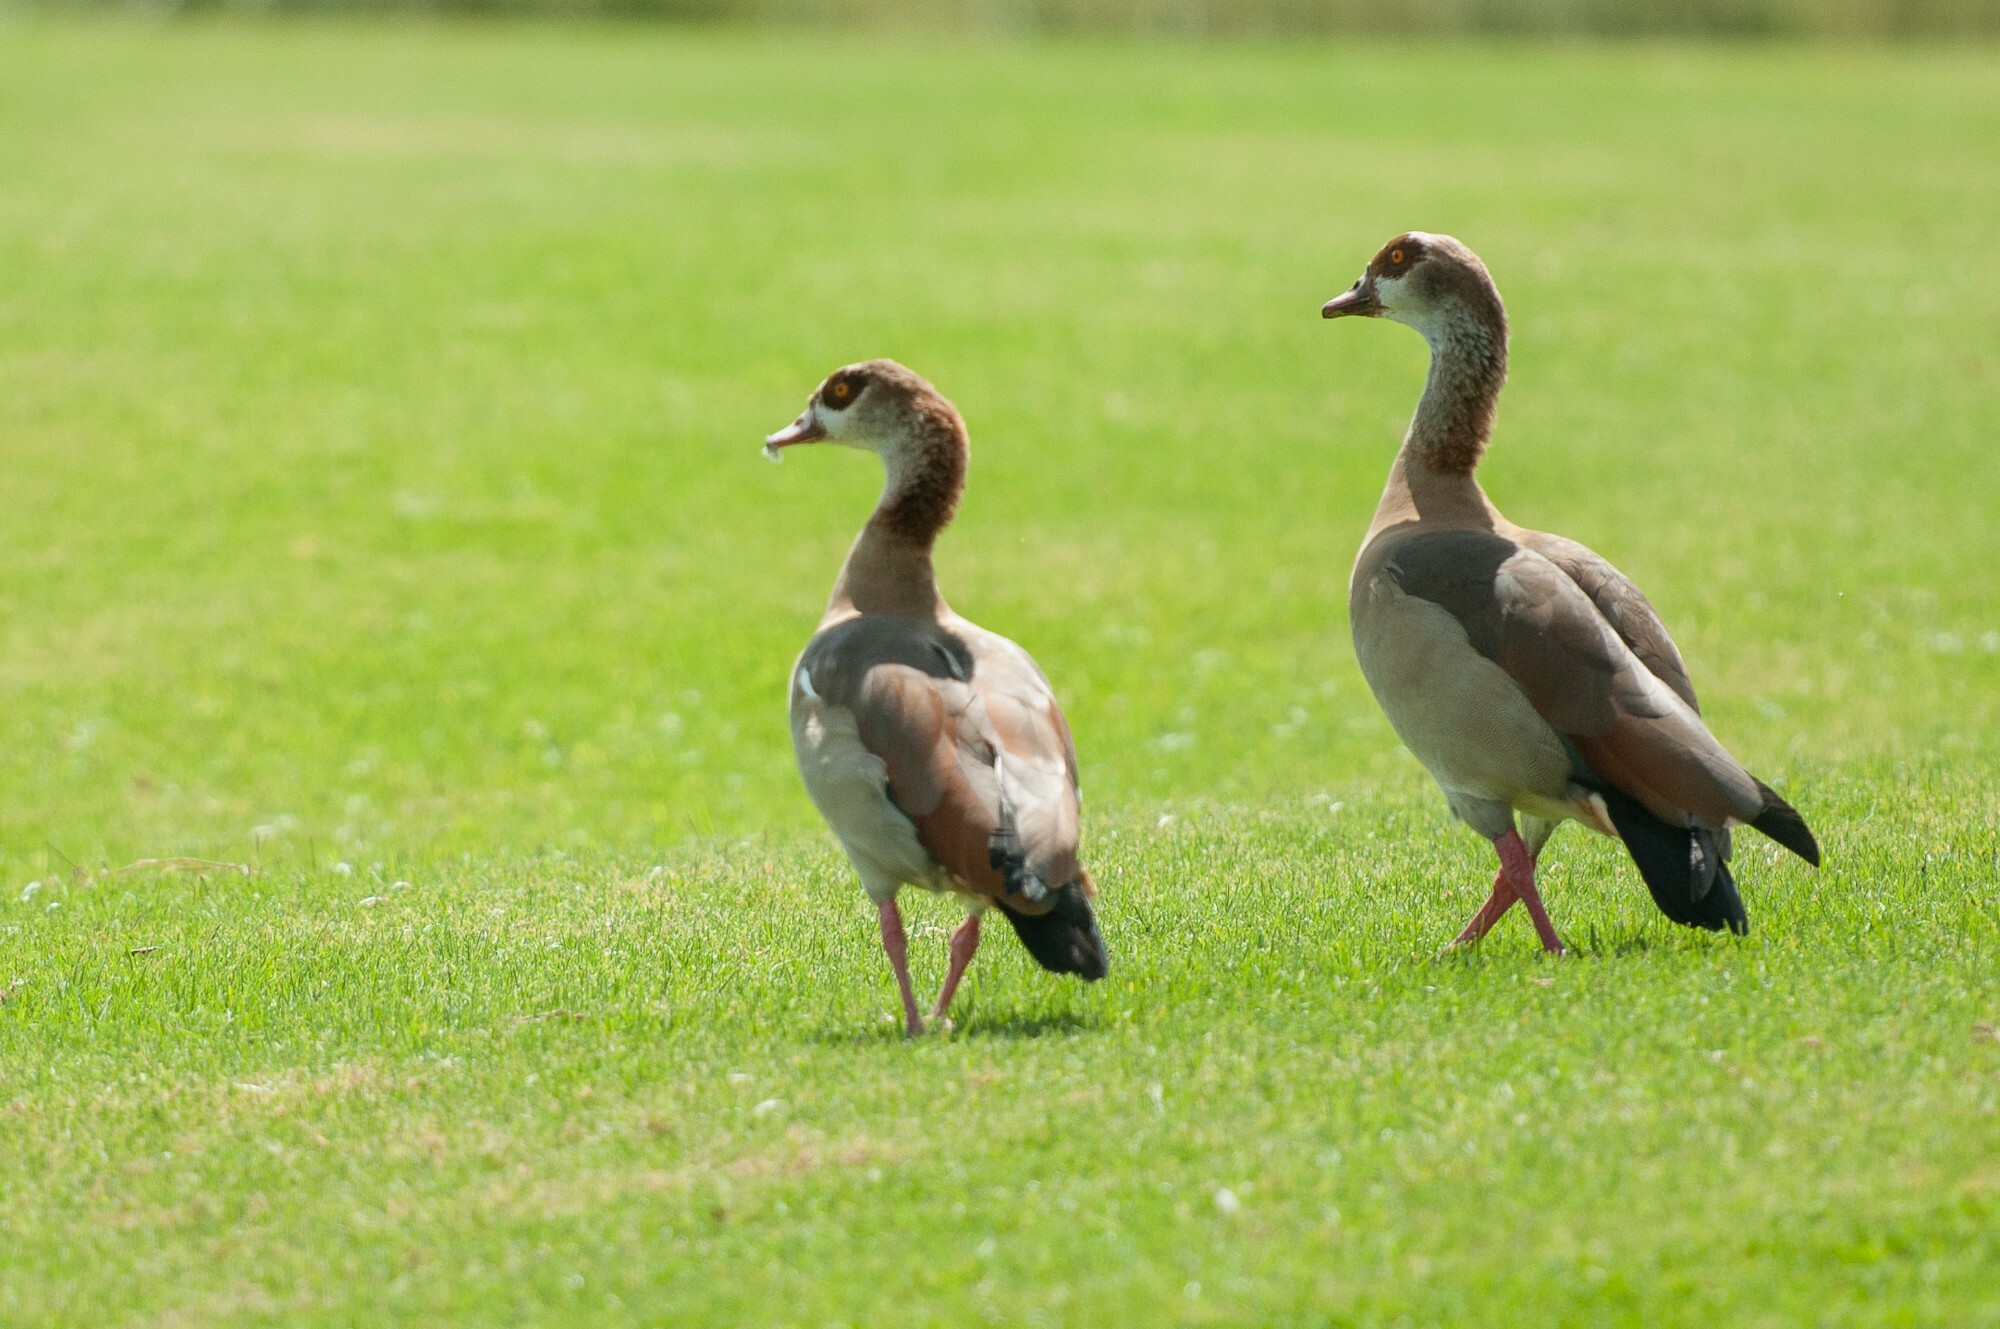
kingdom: Animalia
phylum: Chordata
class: Aves
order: Anseriformes
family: Anatidae
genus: Alopochen
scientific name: Alopochen aegyptiaca
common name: Egyptian goose
